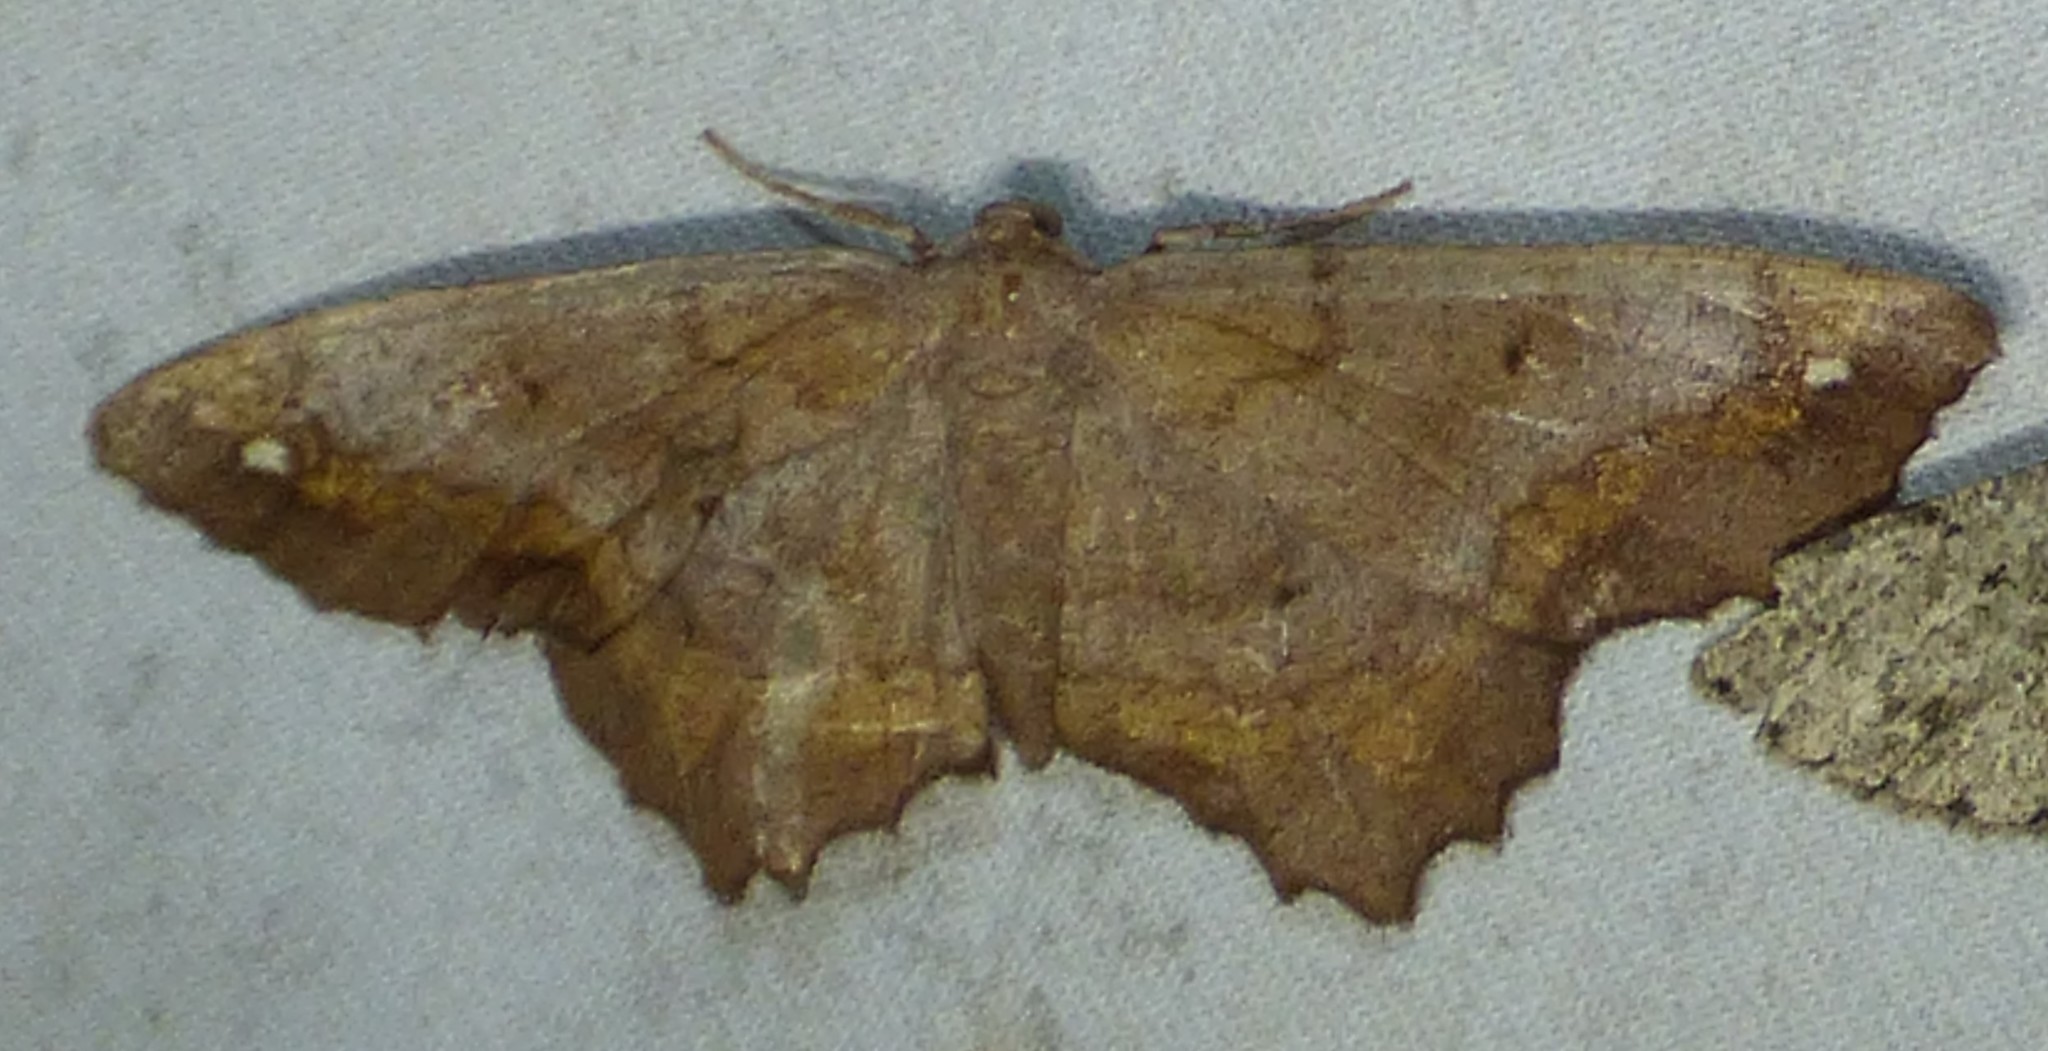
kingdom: Animalia
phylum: Arthropoda
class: Insecta
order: Lepidoptera
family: Geometridae
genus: Hypagyrtis
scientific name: Hypagyrtis esther
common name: Esther moth
